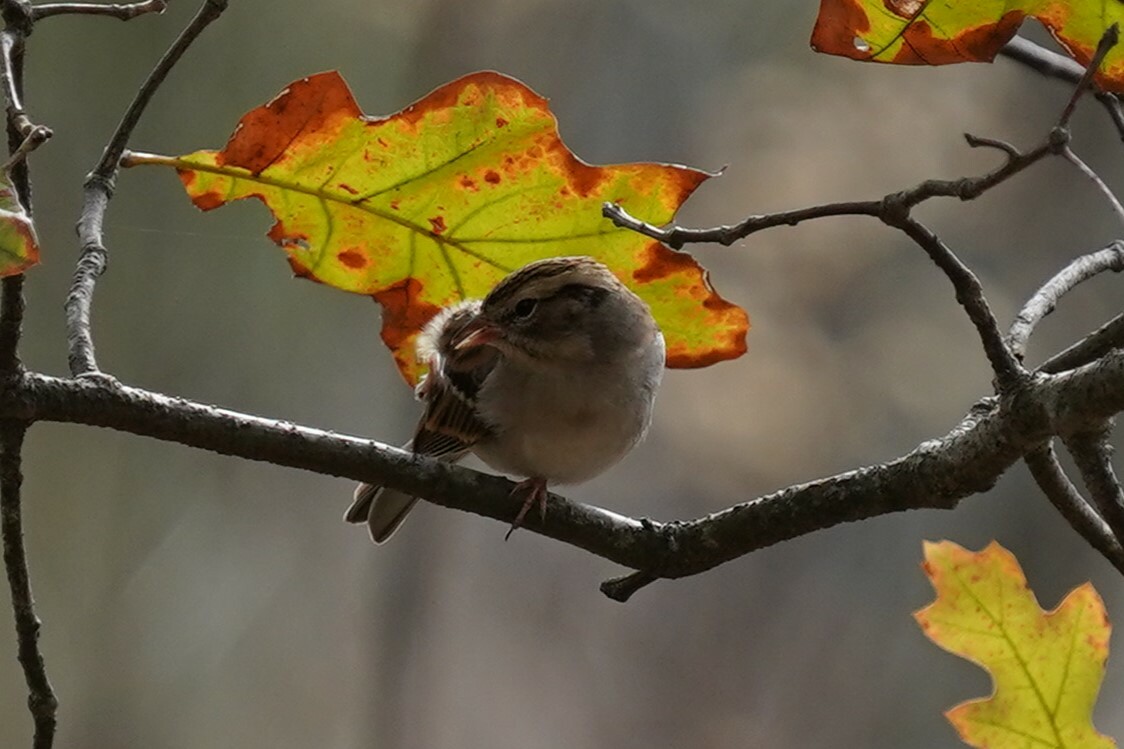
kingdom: Animalia
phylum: Chordata
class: Aves
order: Passeriformes
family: Passerellidae
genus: Spizella
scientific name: Spizella passerina
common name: Chipping sparrow
